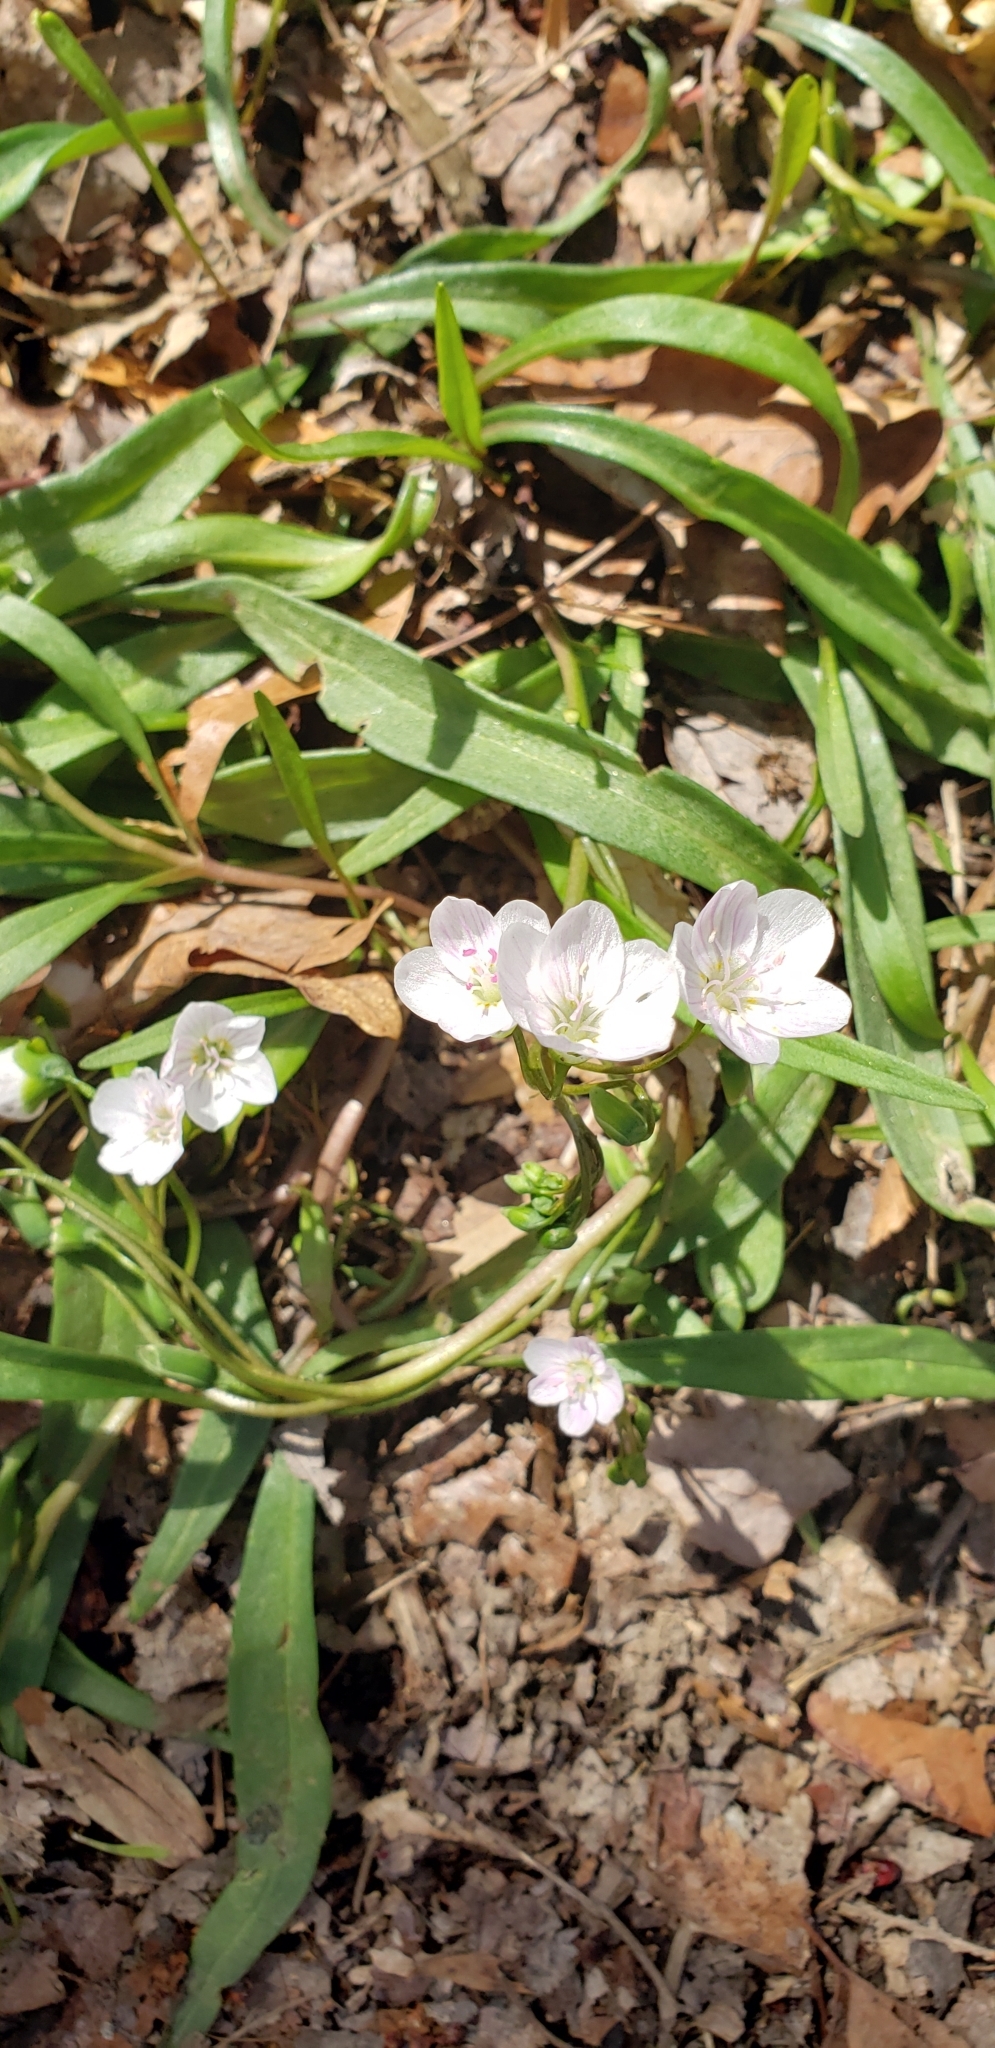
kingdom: Plantae
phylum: Tracheophyta
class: Magnoliopsida
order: Caryophyllales
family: Montiaceae
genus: Claytonia
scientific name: Claytonia virginica
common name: Virginia springbeauty
